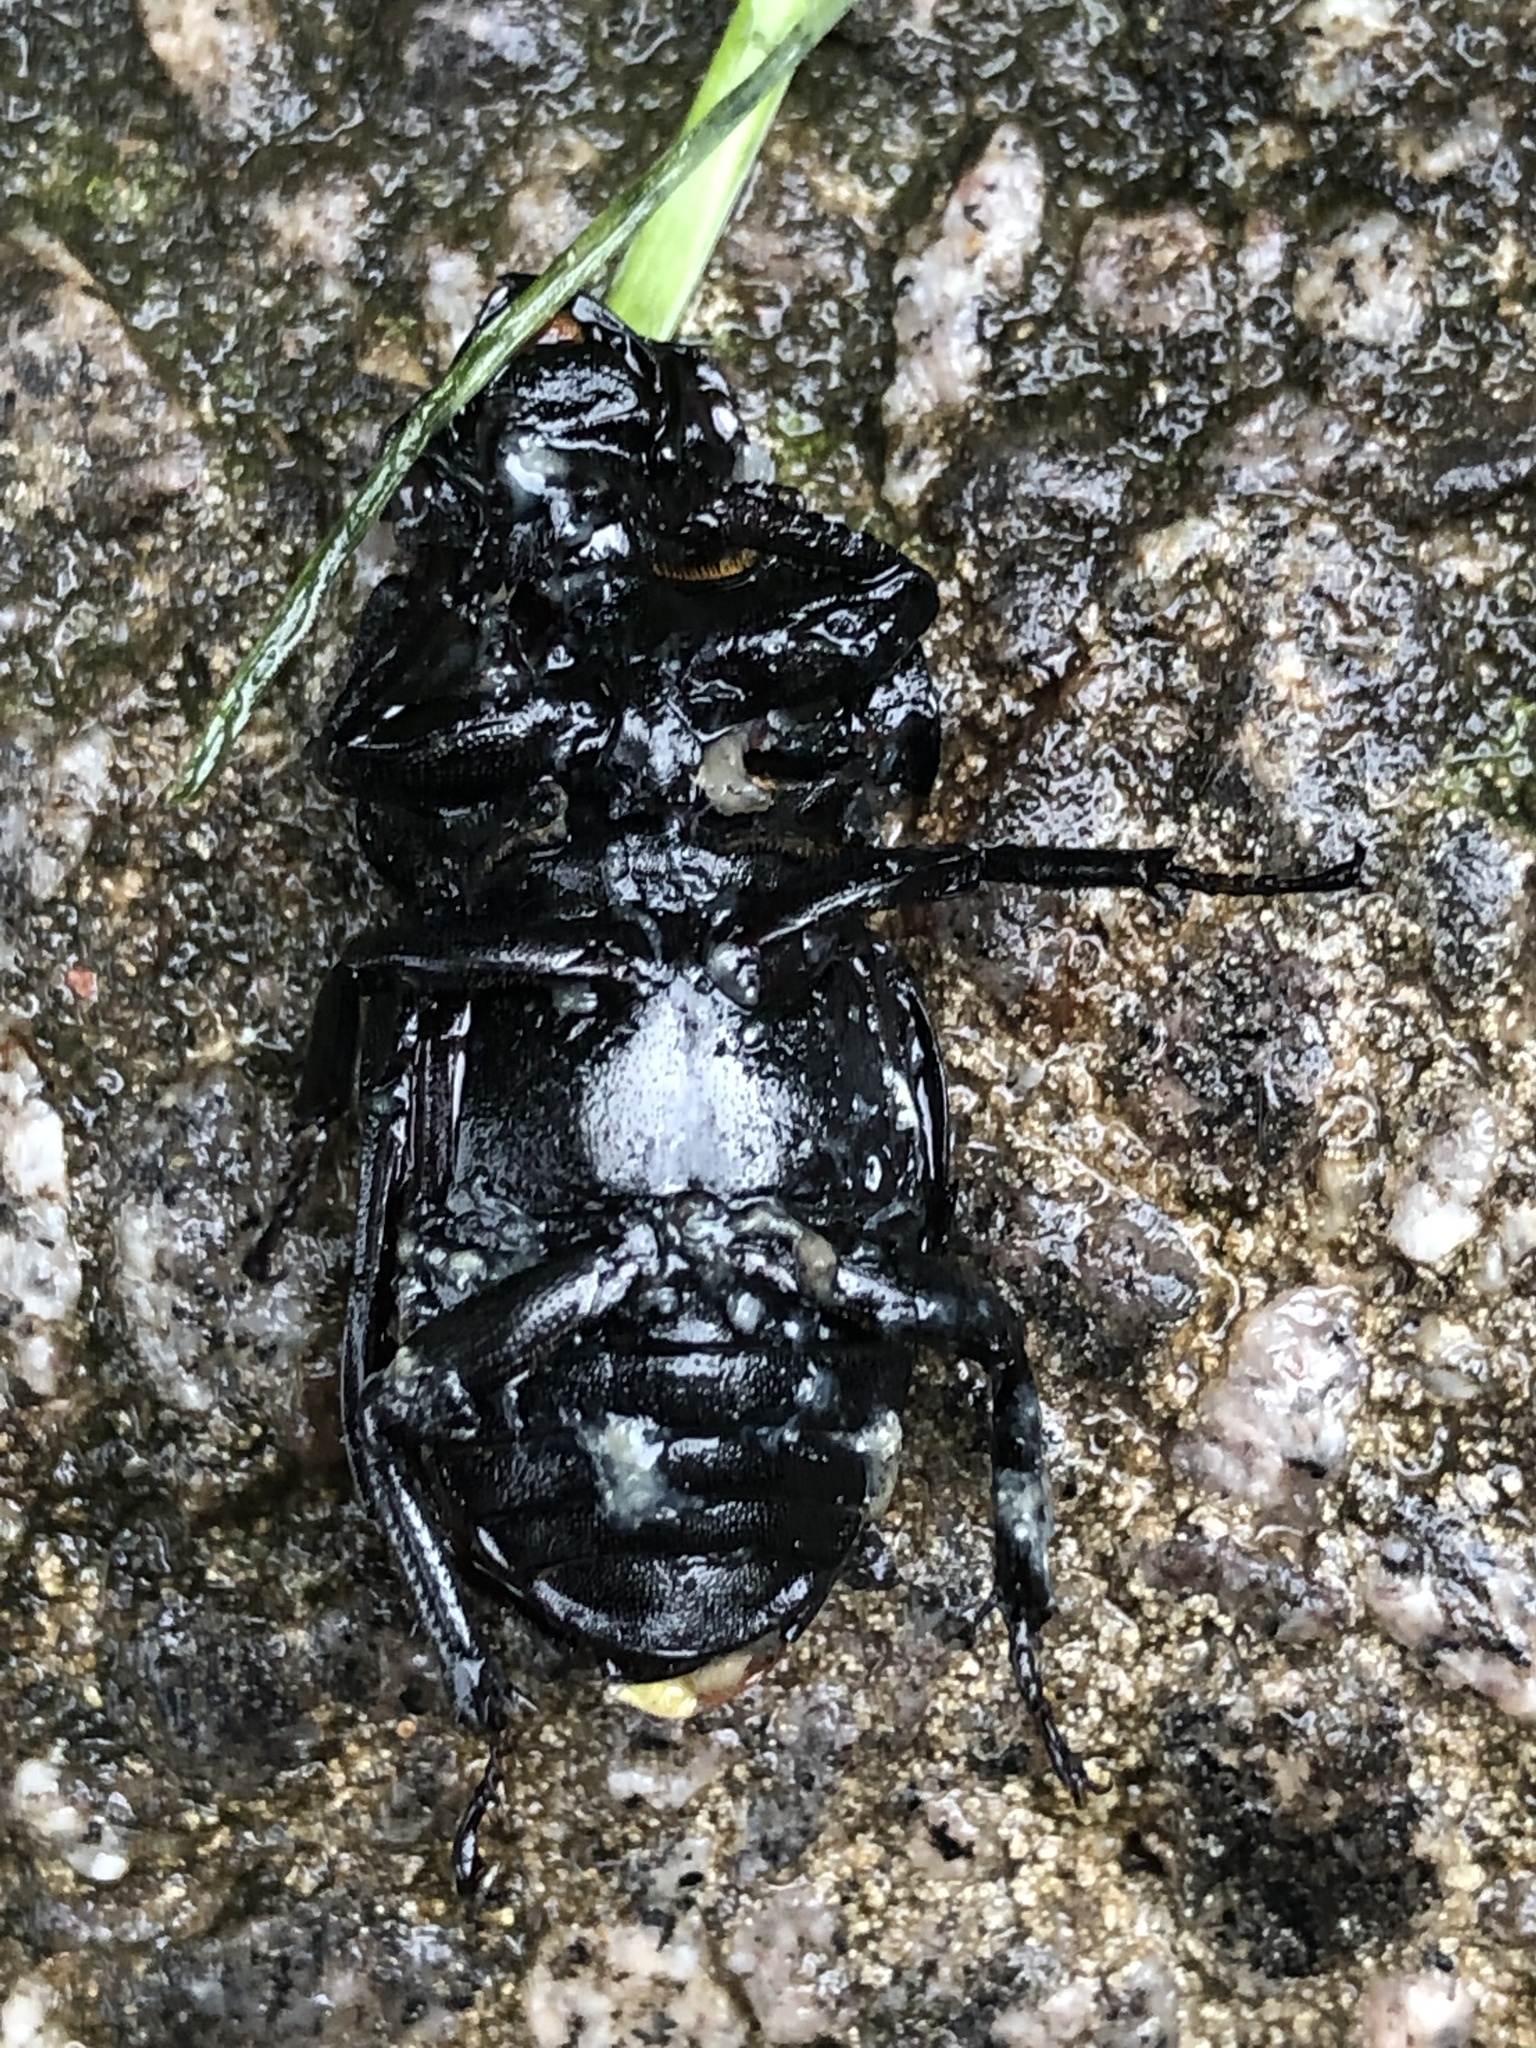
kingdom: Animalia
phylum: Arthropoda
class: Insecta
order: Coleoptera
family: Lucanidae
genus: Dorcus
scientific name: Dorcus parallelipipedus
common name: Lesser stag beetle
